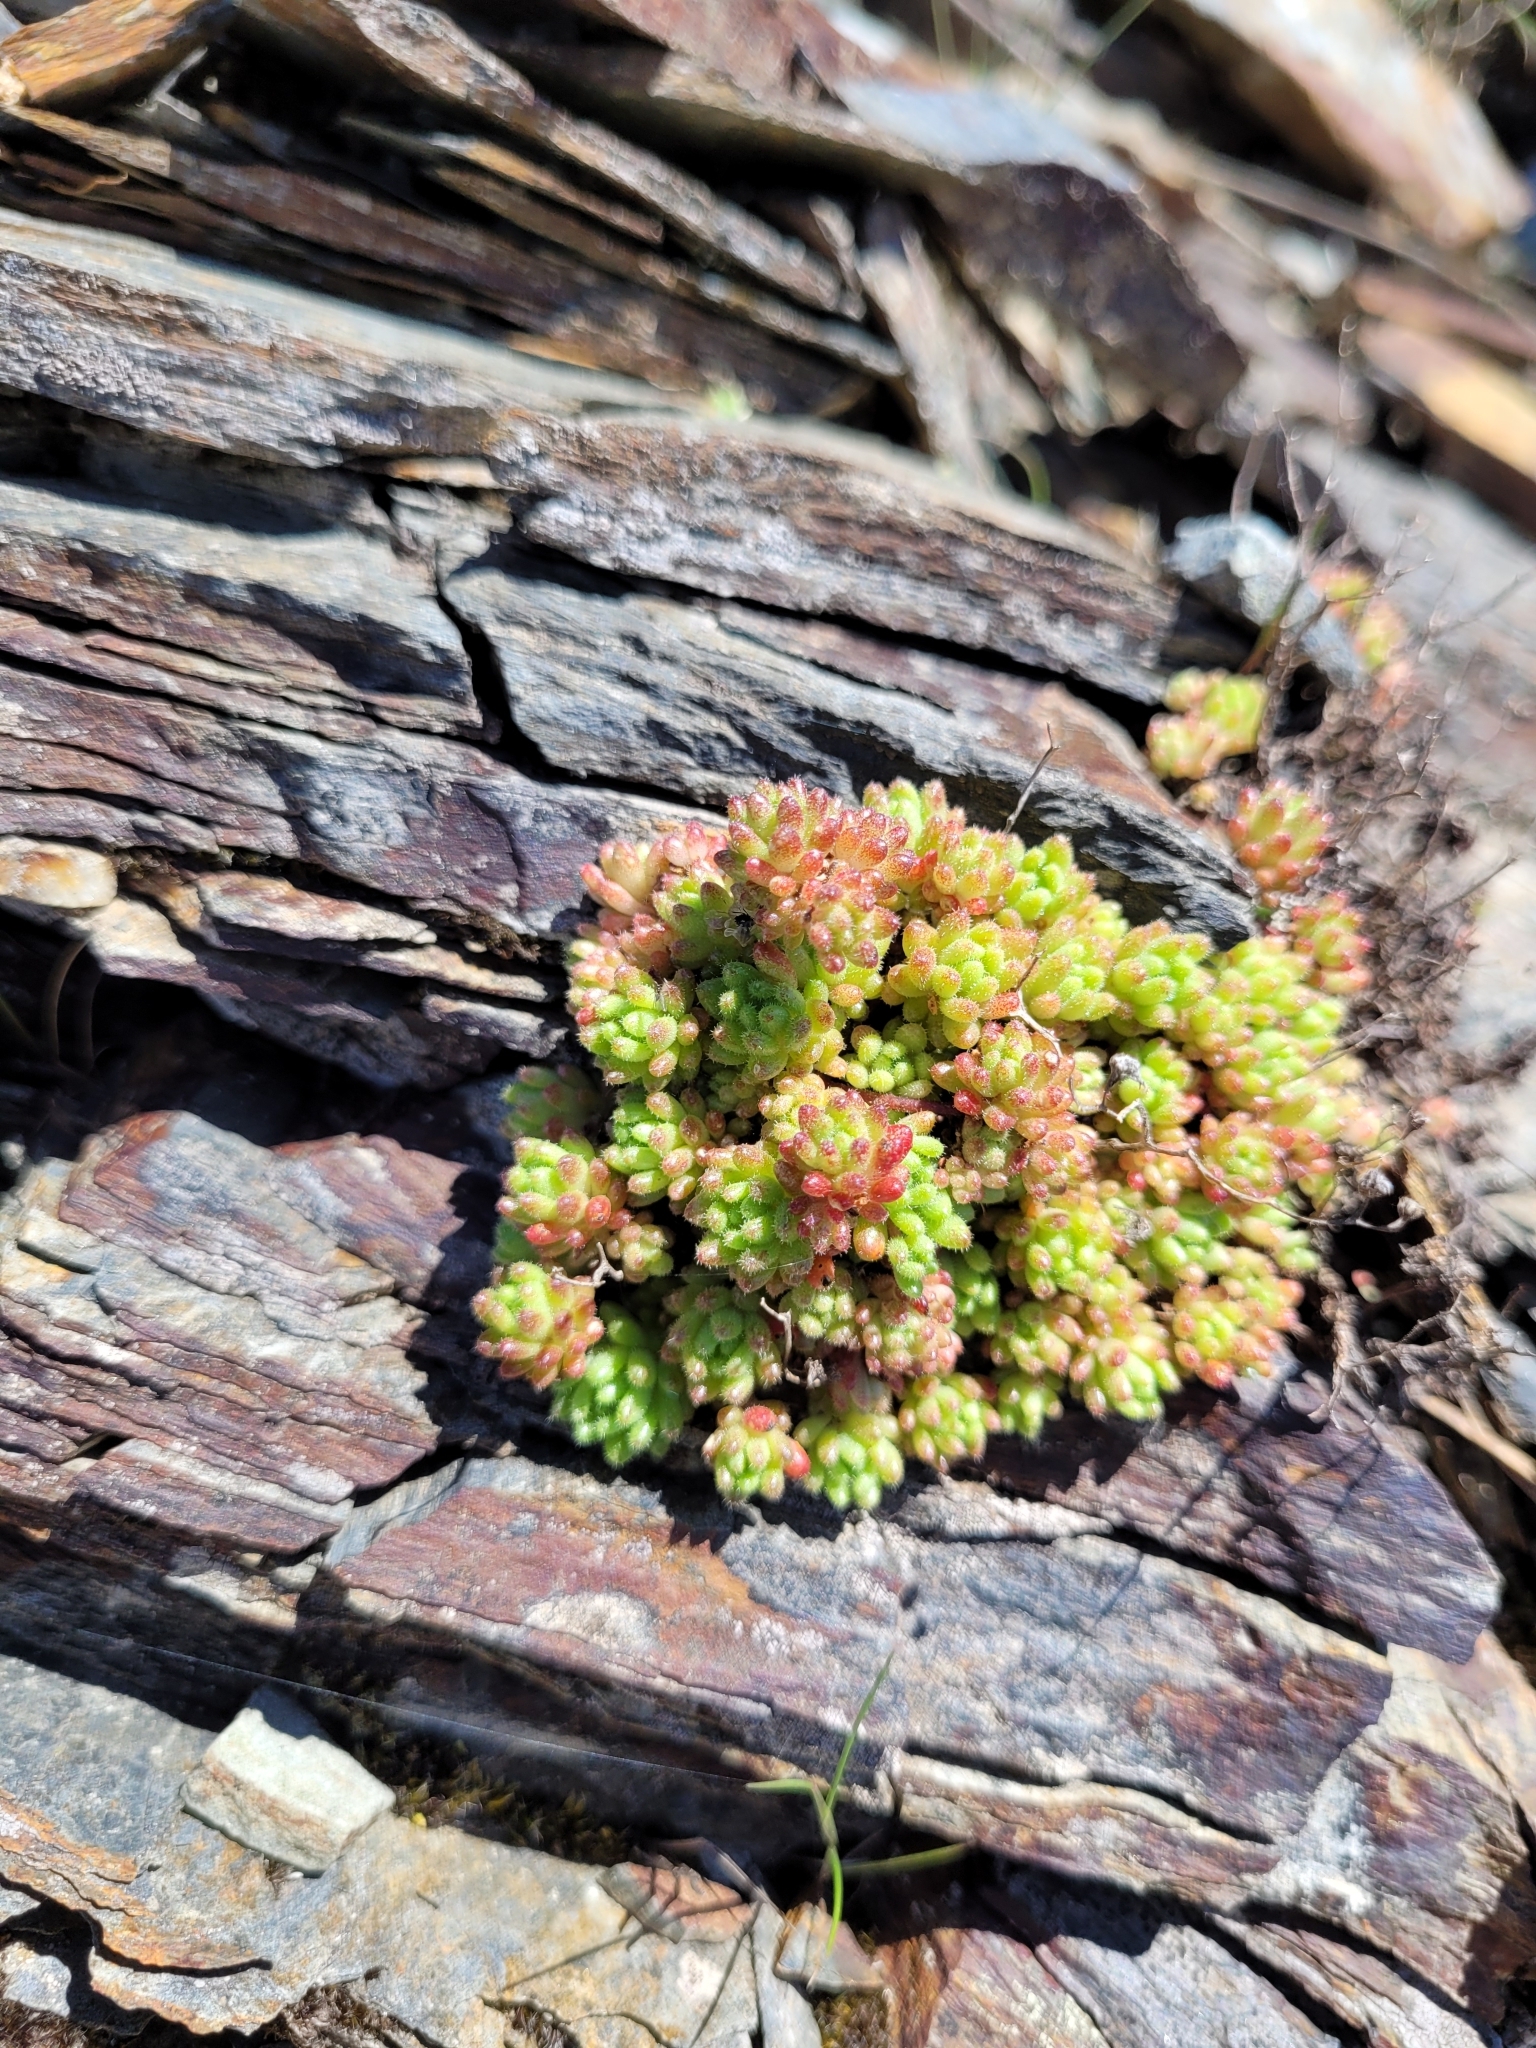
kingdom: Plantae
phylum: Tracheophyta
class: Magnoliopsida
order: Saxifragales
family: Crassulaceae
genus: Sedum
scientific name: Sedum hirsutum
